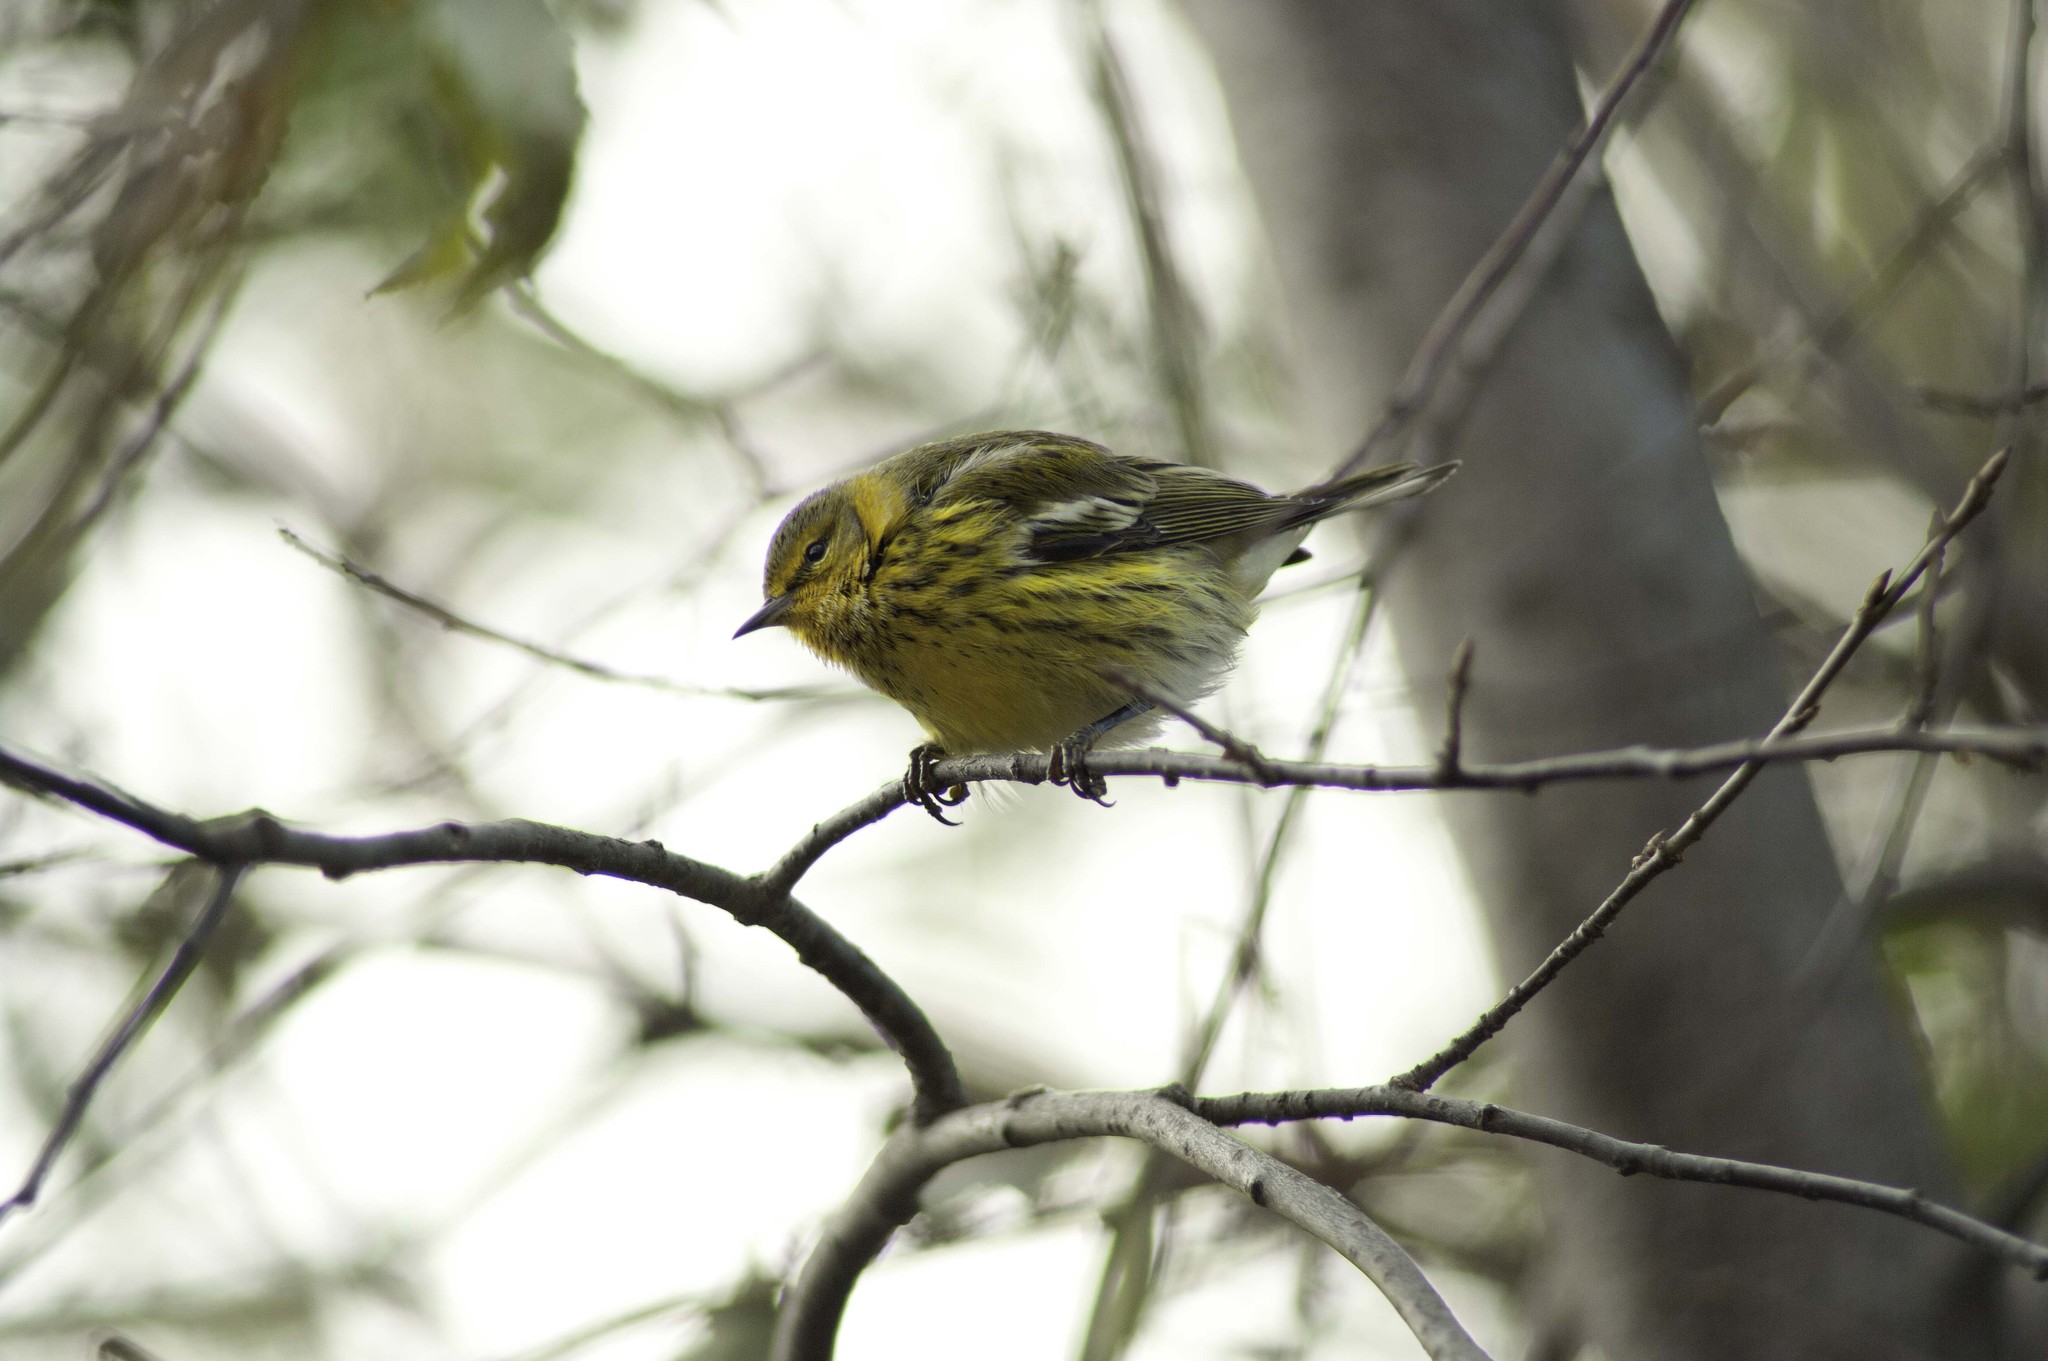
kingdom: Animalia
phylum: Chordata
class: Aves
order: Passeriformes
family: Parulidae
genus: Setophaga
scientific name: Setophaga tigrina
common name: Cape may warbler
